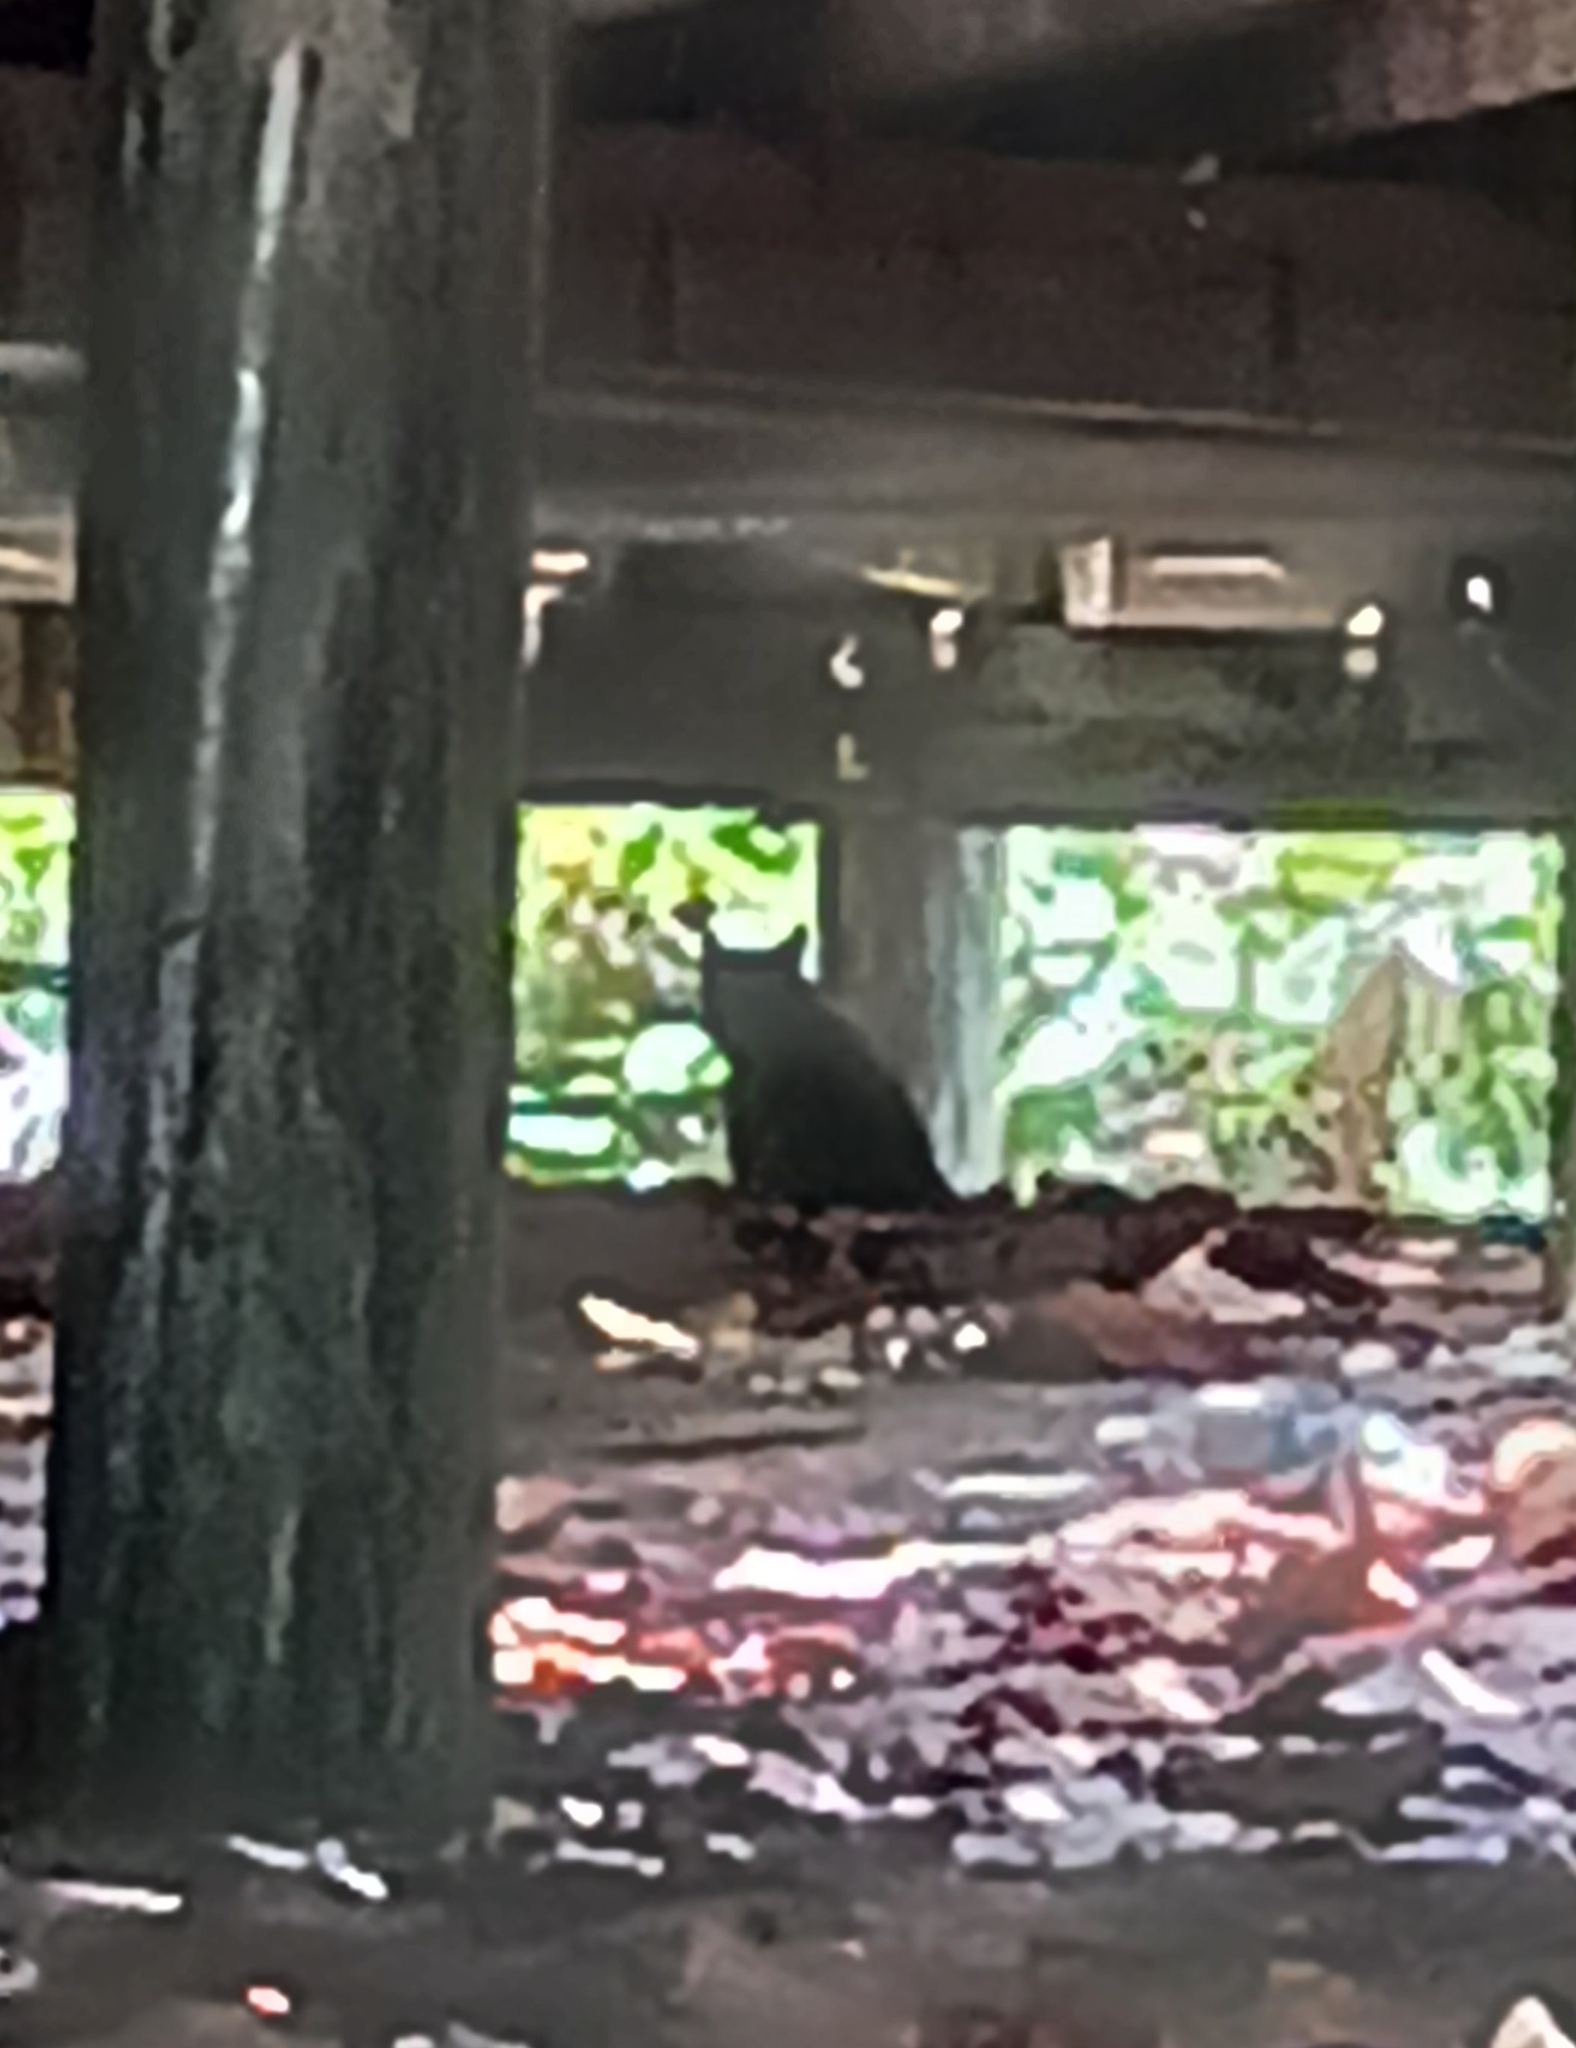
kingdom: Animalia
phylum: Chordata
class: Mammalia
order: Carnivora
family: Felidae
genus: Felis
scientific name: Felis catus
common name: Domestic cat
